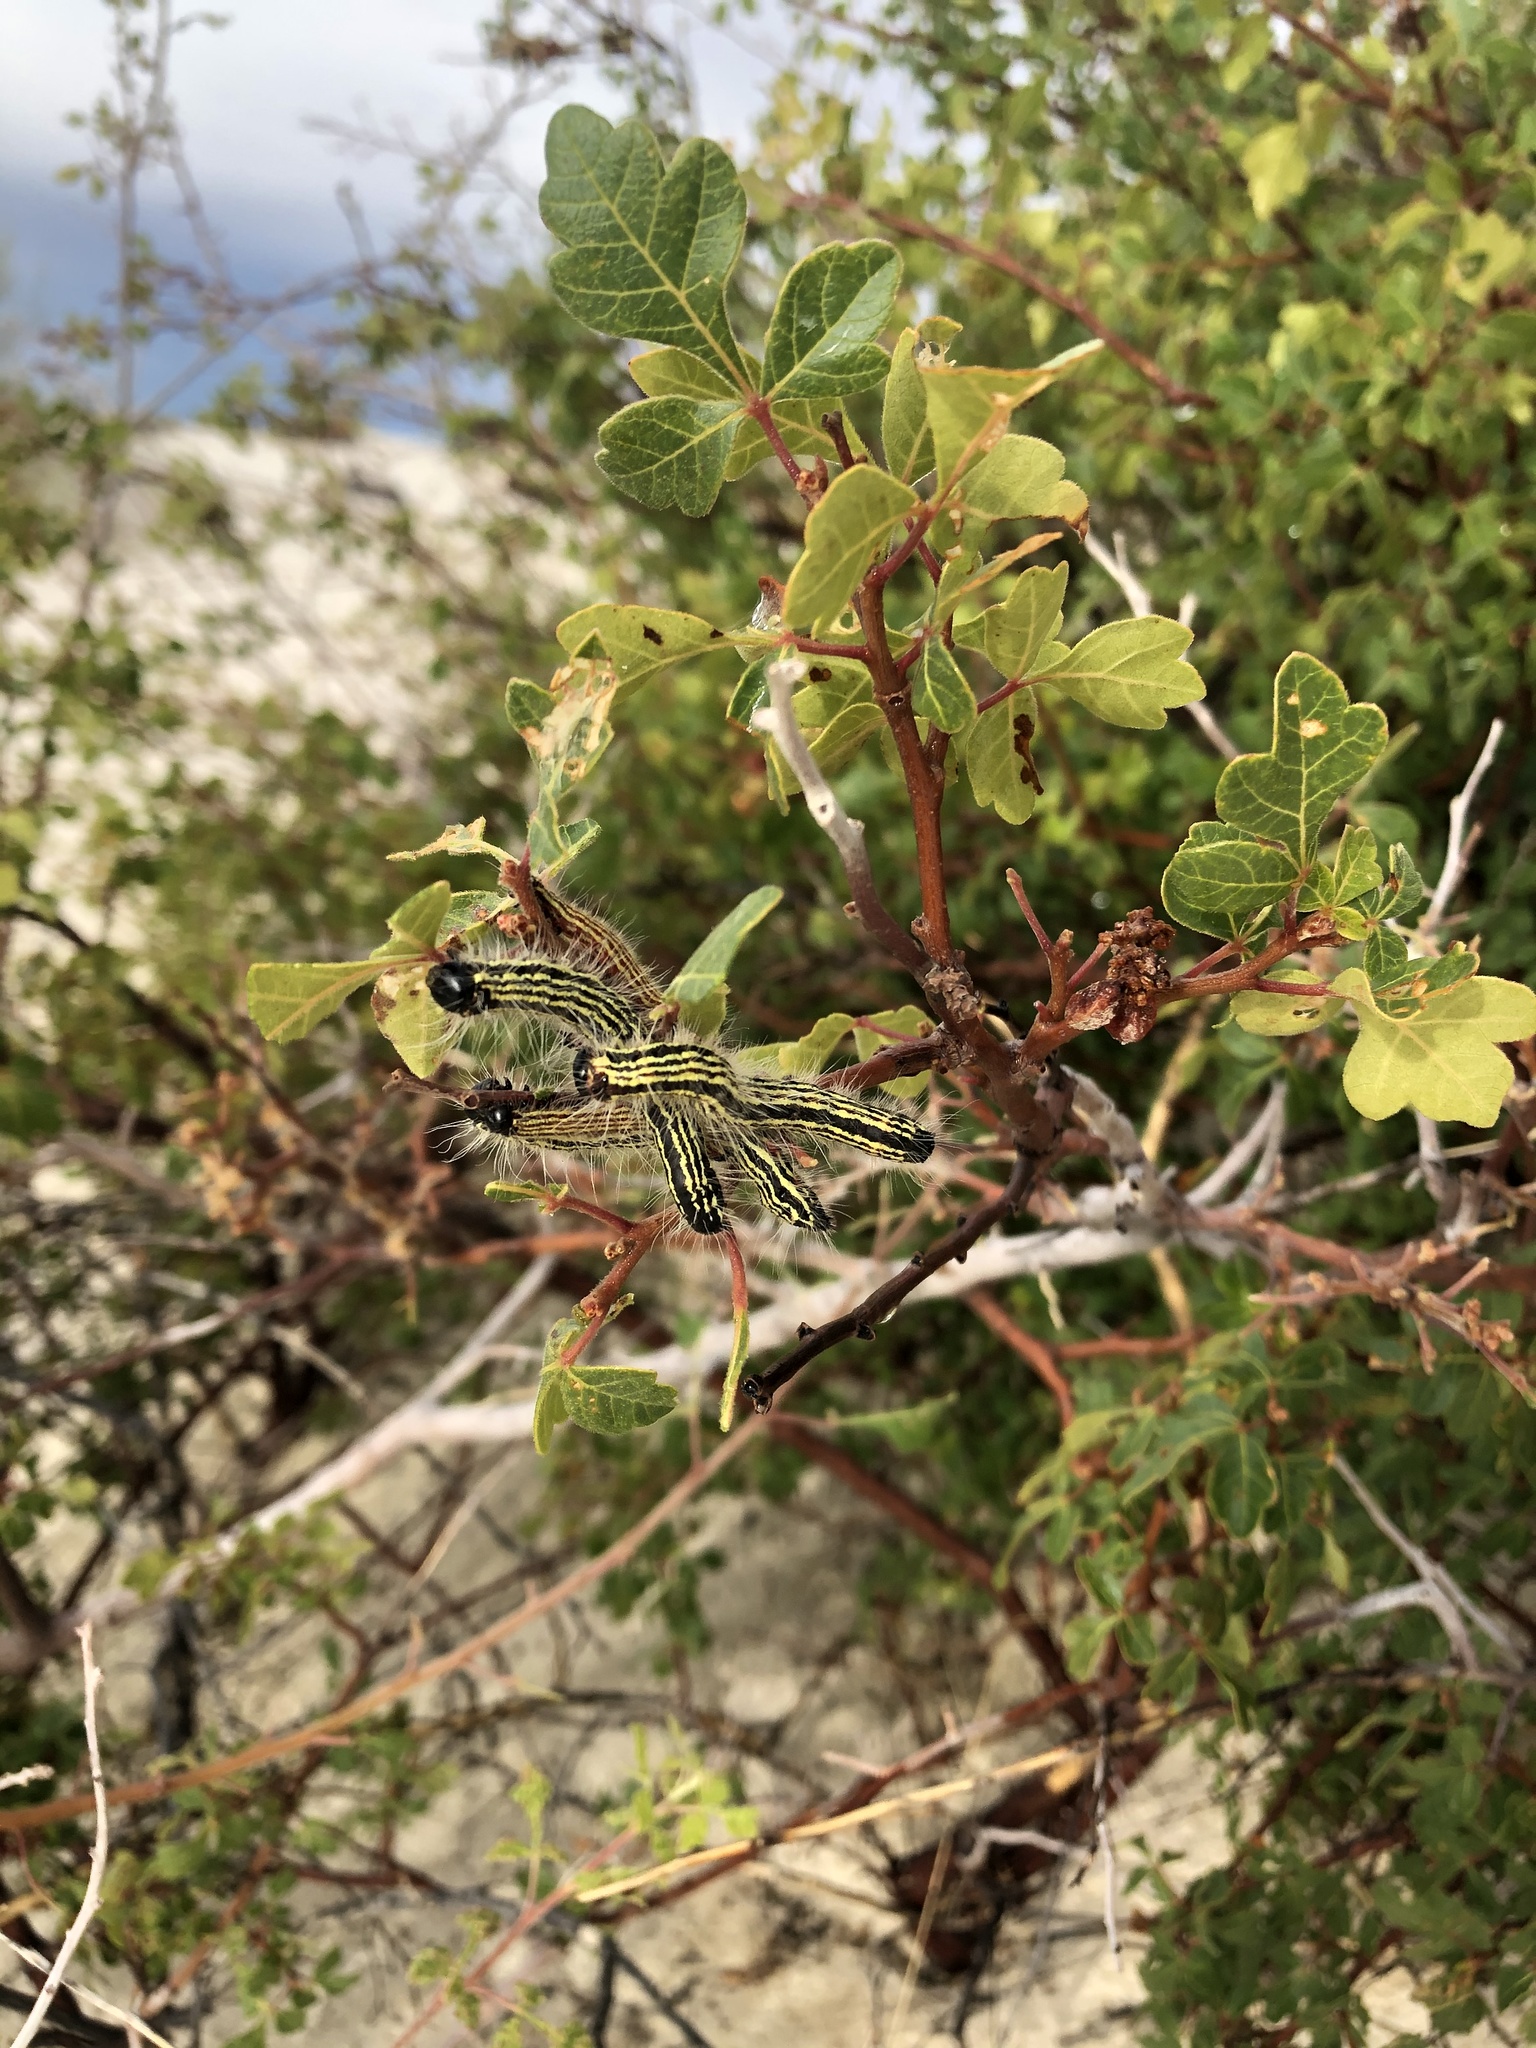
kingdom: Plantae
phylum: Tracheophyta
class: Magnoliopsida
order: Sapindales
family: Anacardiaceae
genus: Rhus
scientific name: Rhus trilobata
